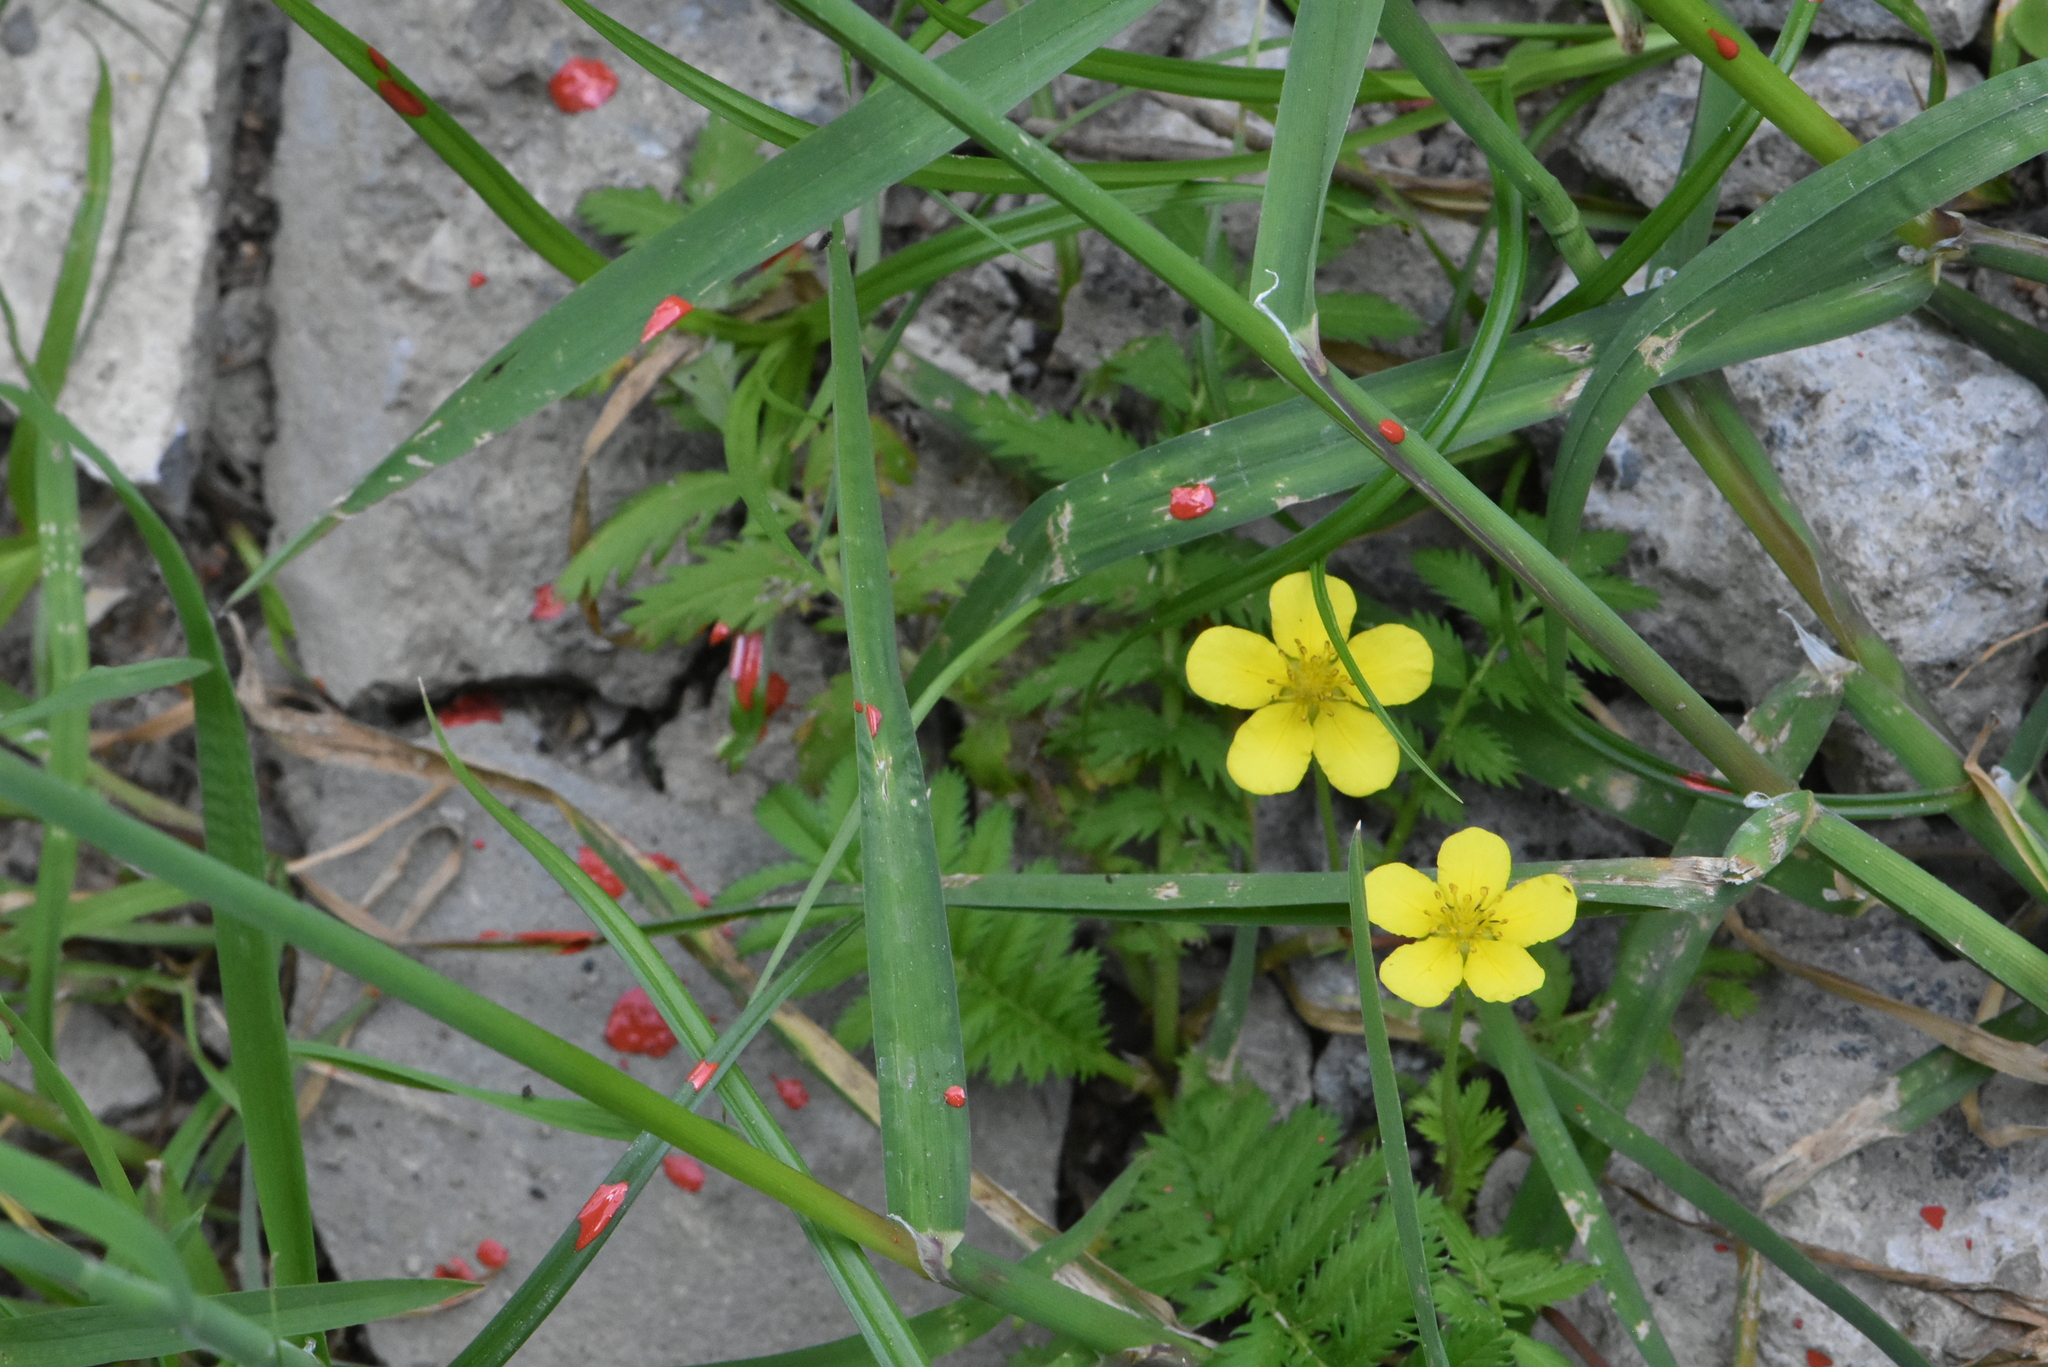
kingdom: Plantae
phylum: Tracheophyta
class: Magnoliopsida
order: Rosales
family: Rosaceae
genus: Argentina
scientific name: Argentina anserina
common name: Common silverweed
